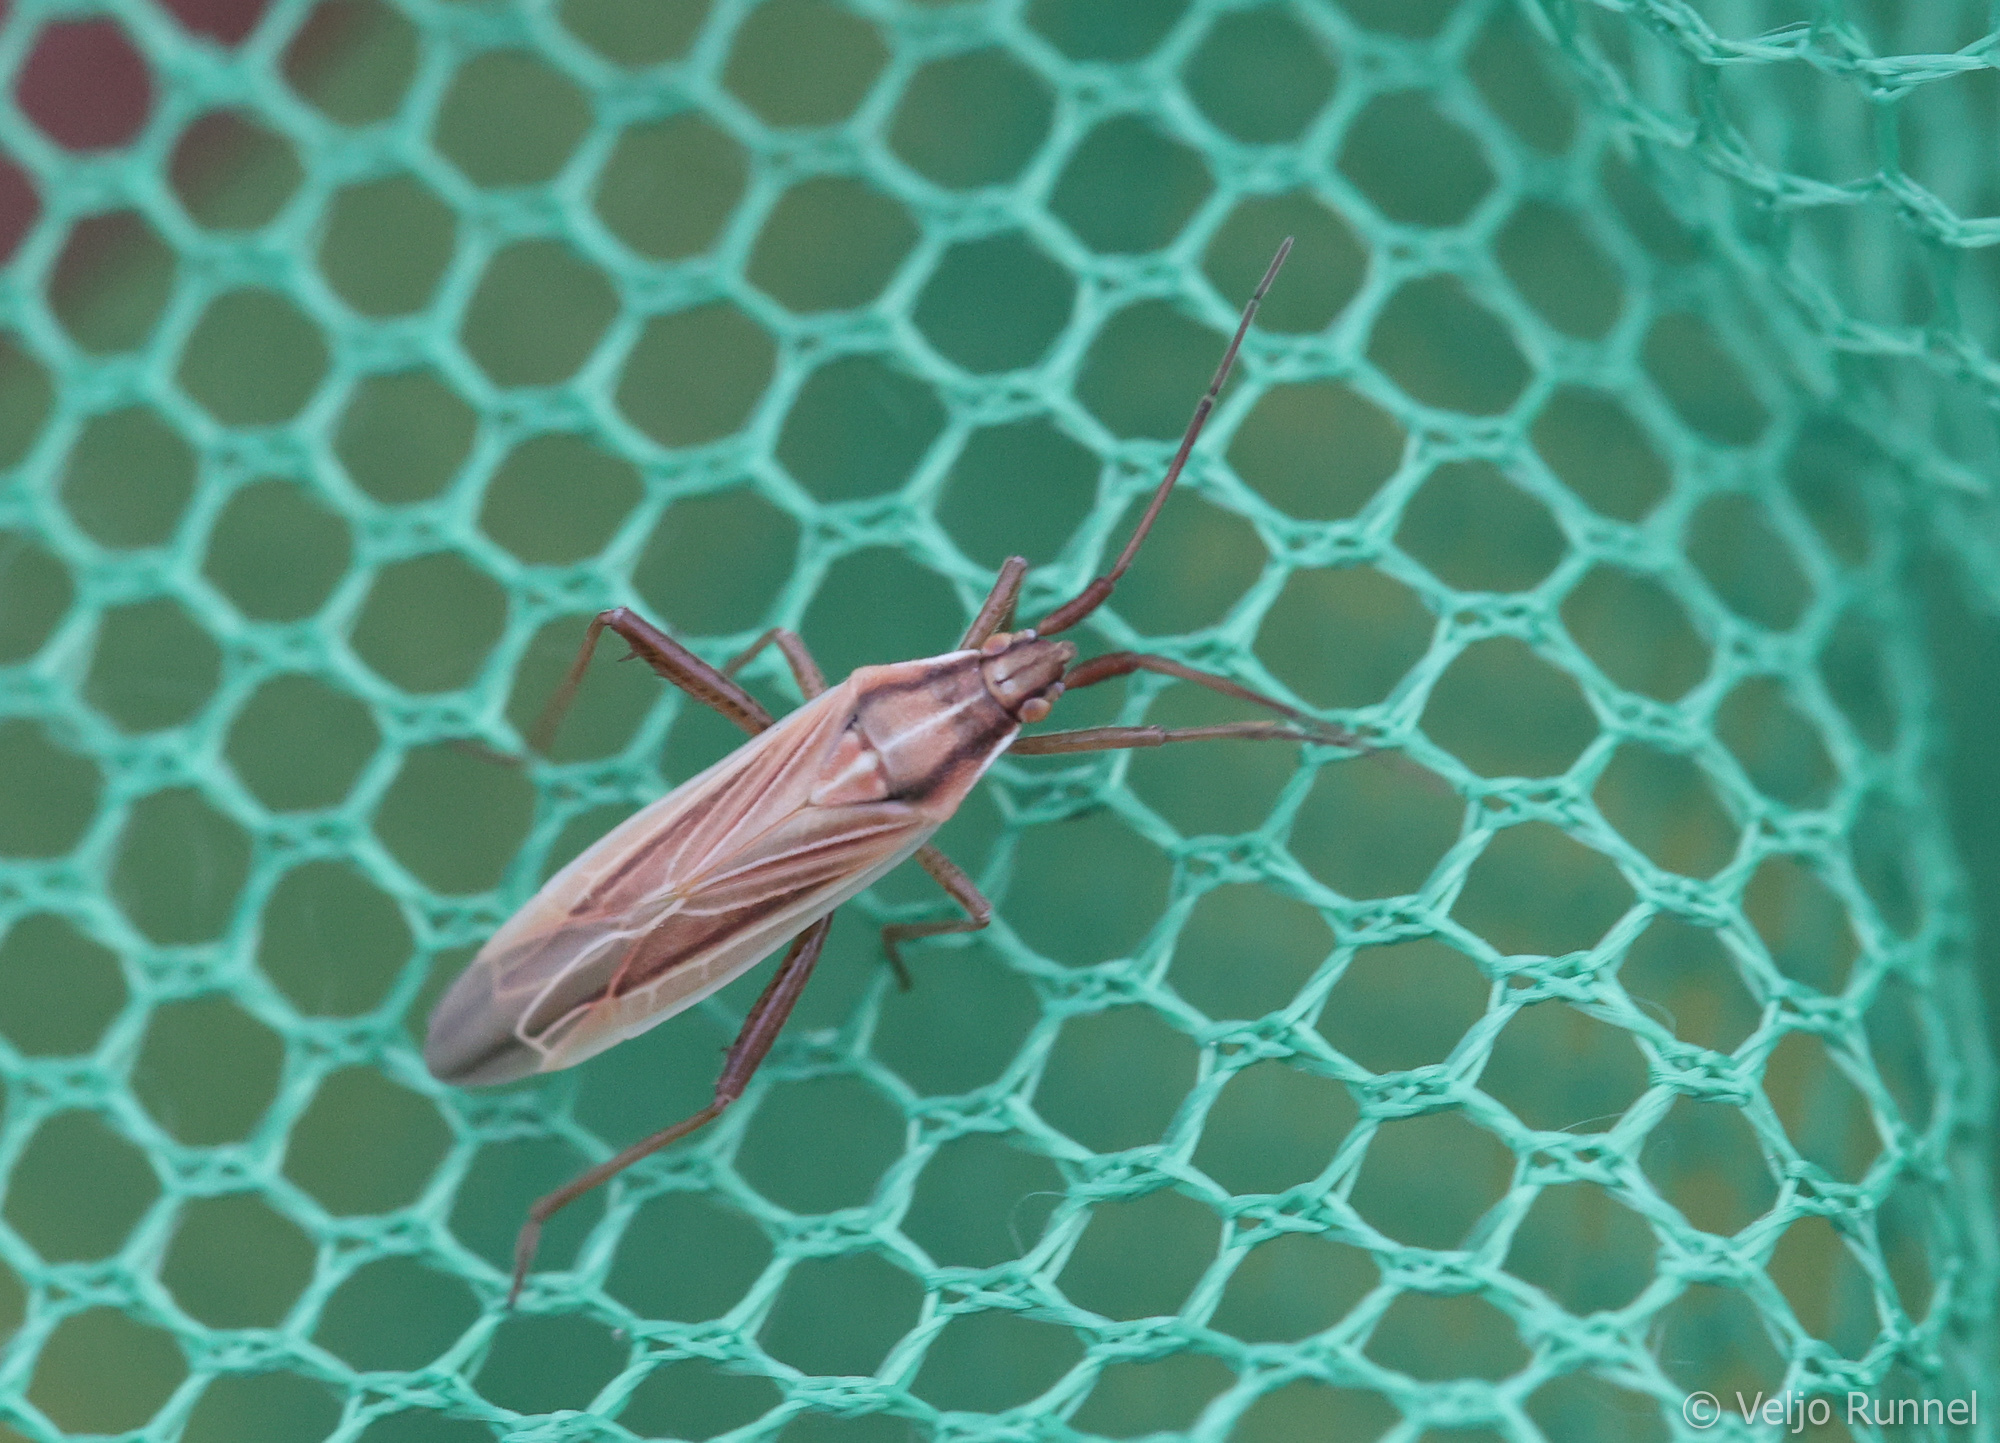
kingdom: Animalia
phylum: Arthropoda
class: Insecta
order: Hemiptera
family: Miridae
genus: Stenodema
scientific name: Stenodema trispinosa
